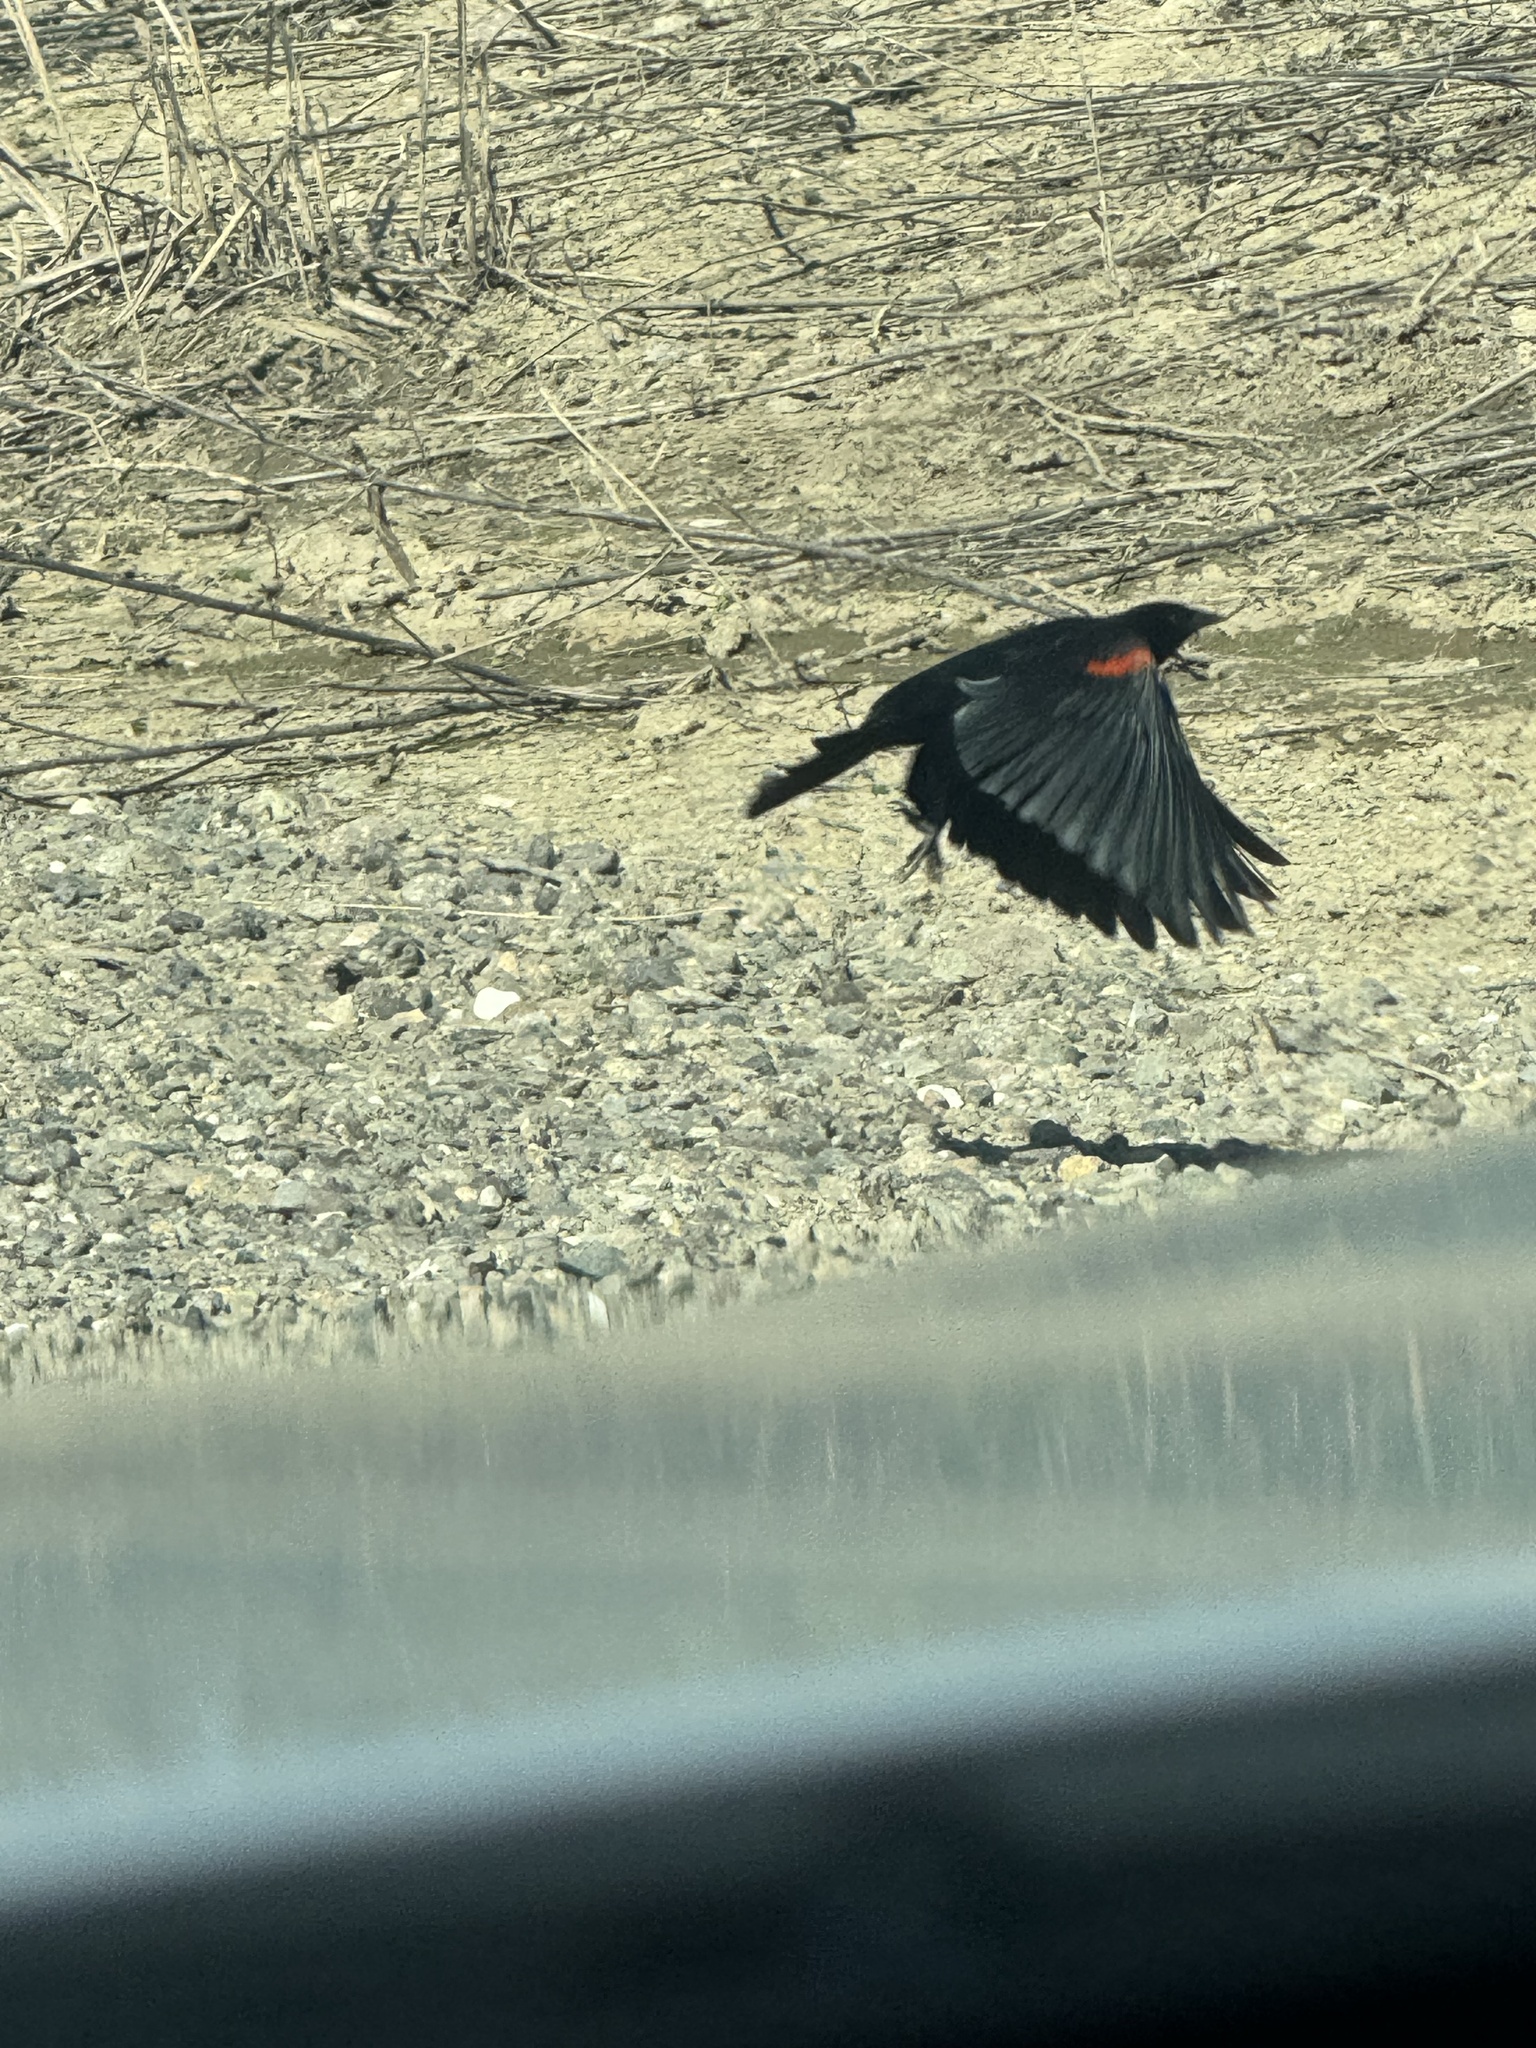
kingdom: Animalia
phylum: Chordata
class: Aves
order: Passeriformes
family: Icteridae
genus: Agelaius
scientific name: Agelaius phoeniceus
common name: Red-winged blackbird
